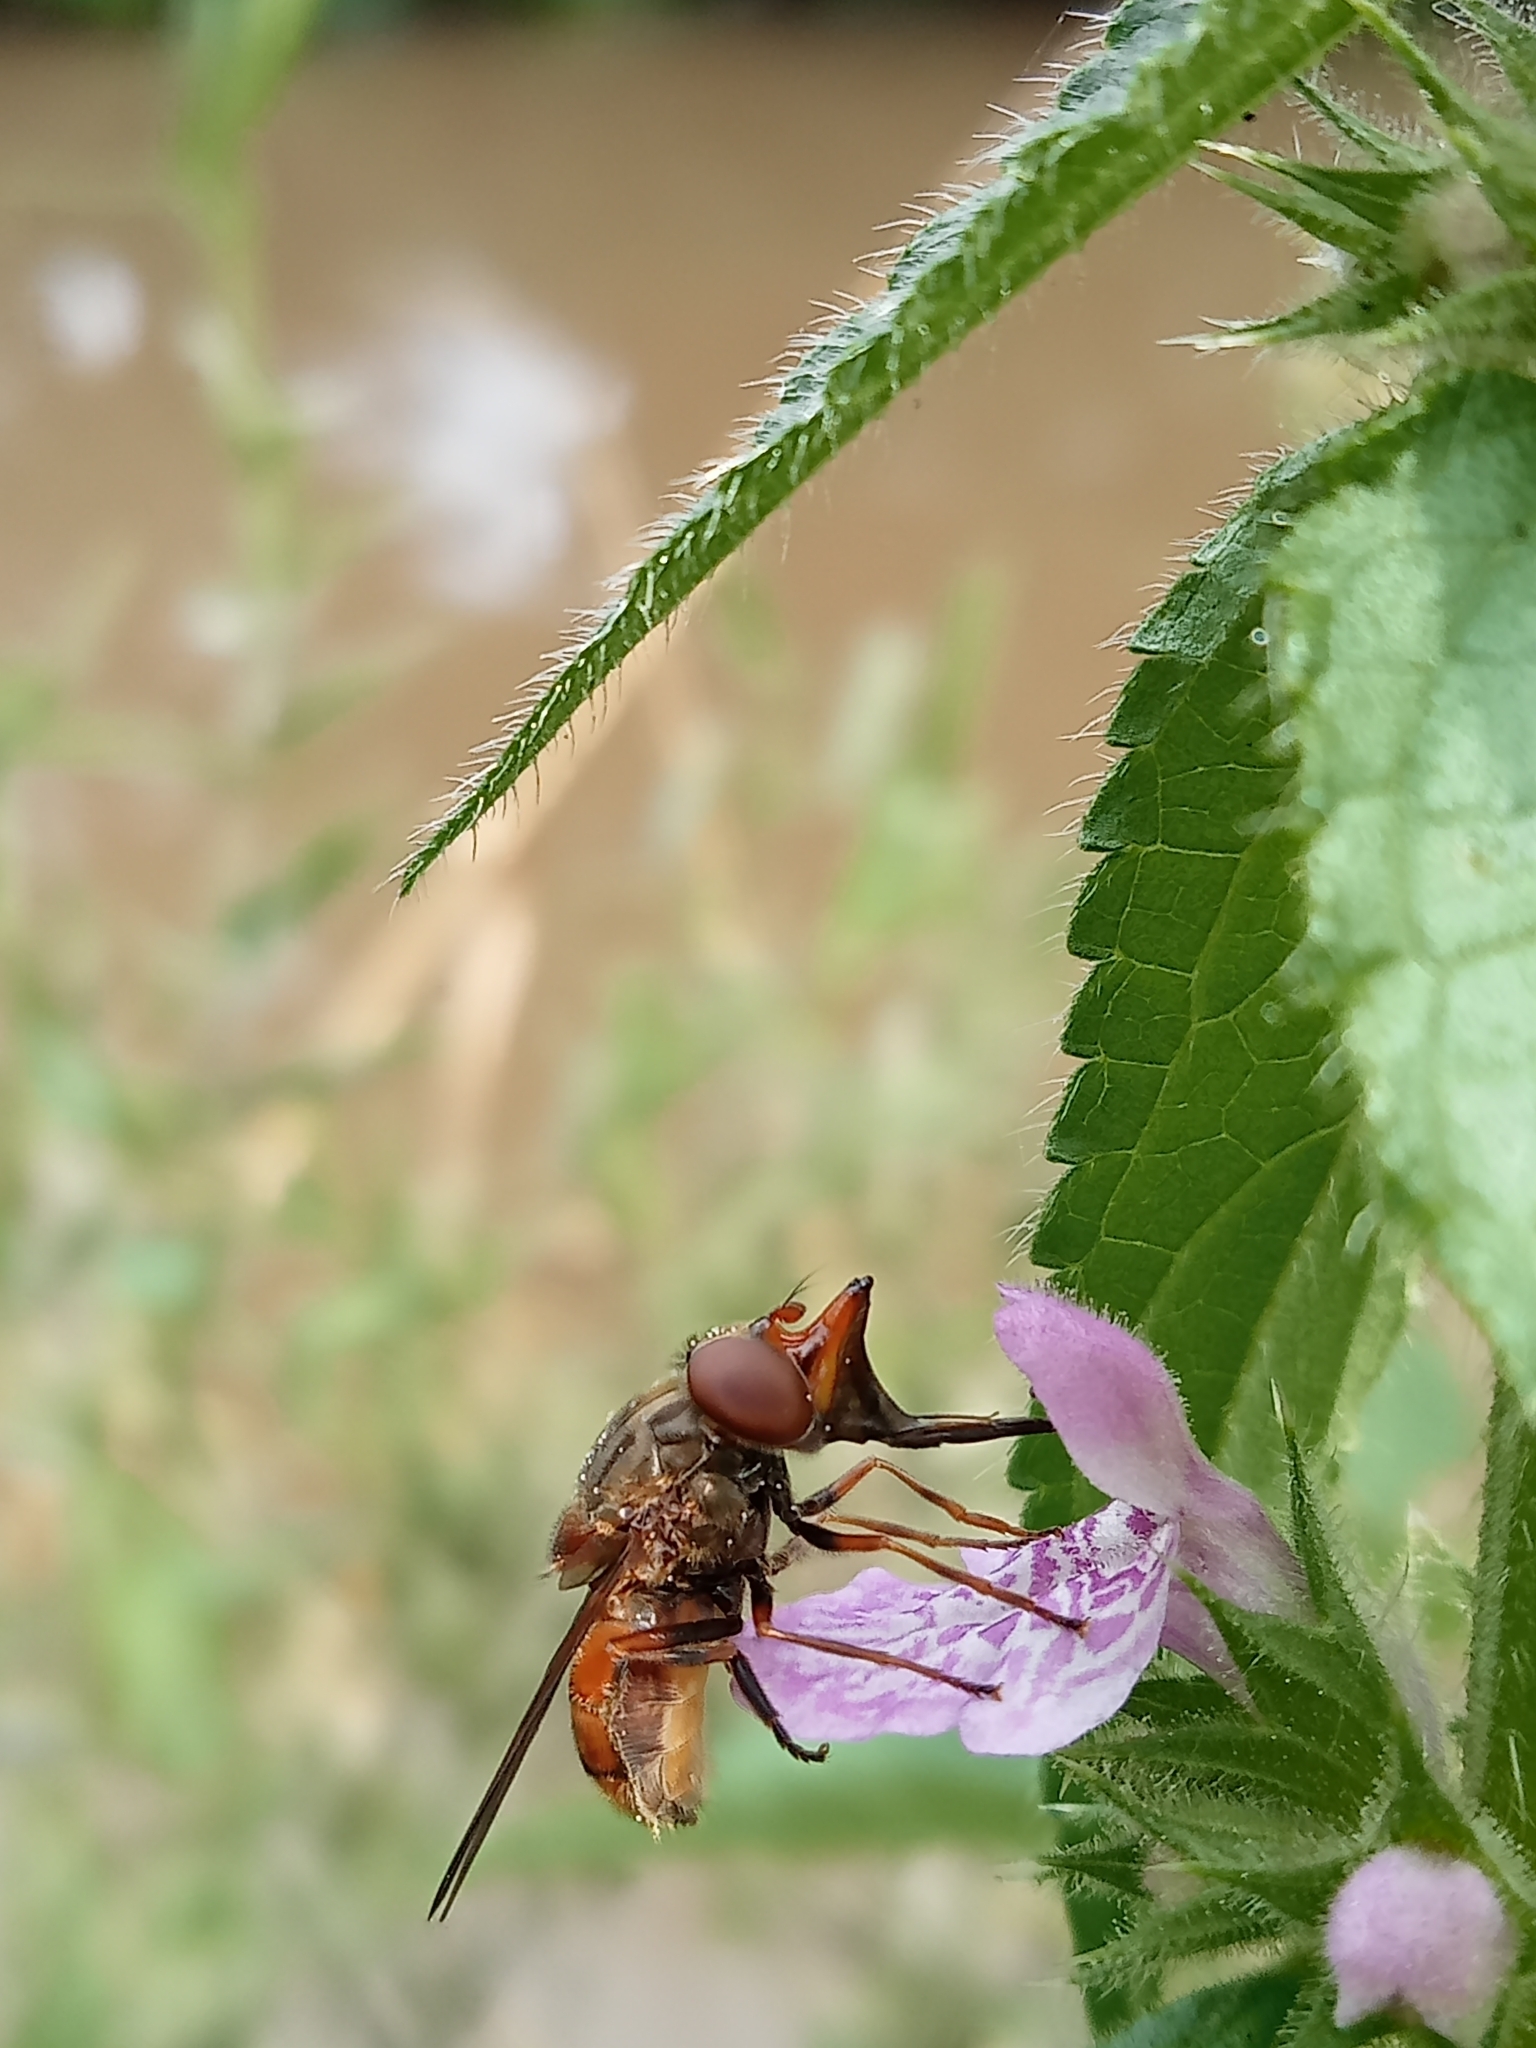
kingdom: Animalia
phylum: Arthropoda
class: Insecta
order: Diptera
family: Syrphidae
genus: Rhingia
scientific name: Rhingia campestris
